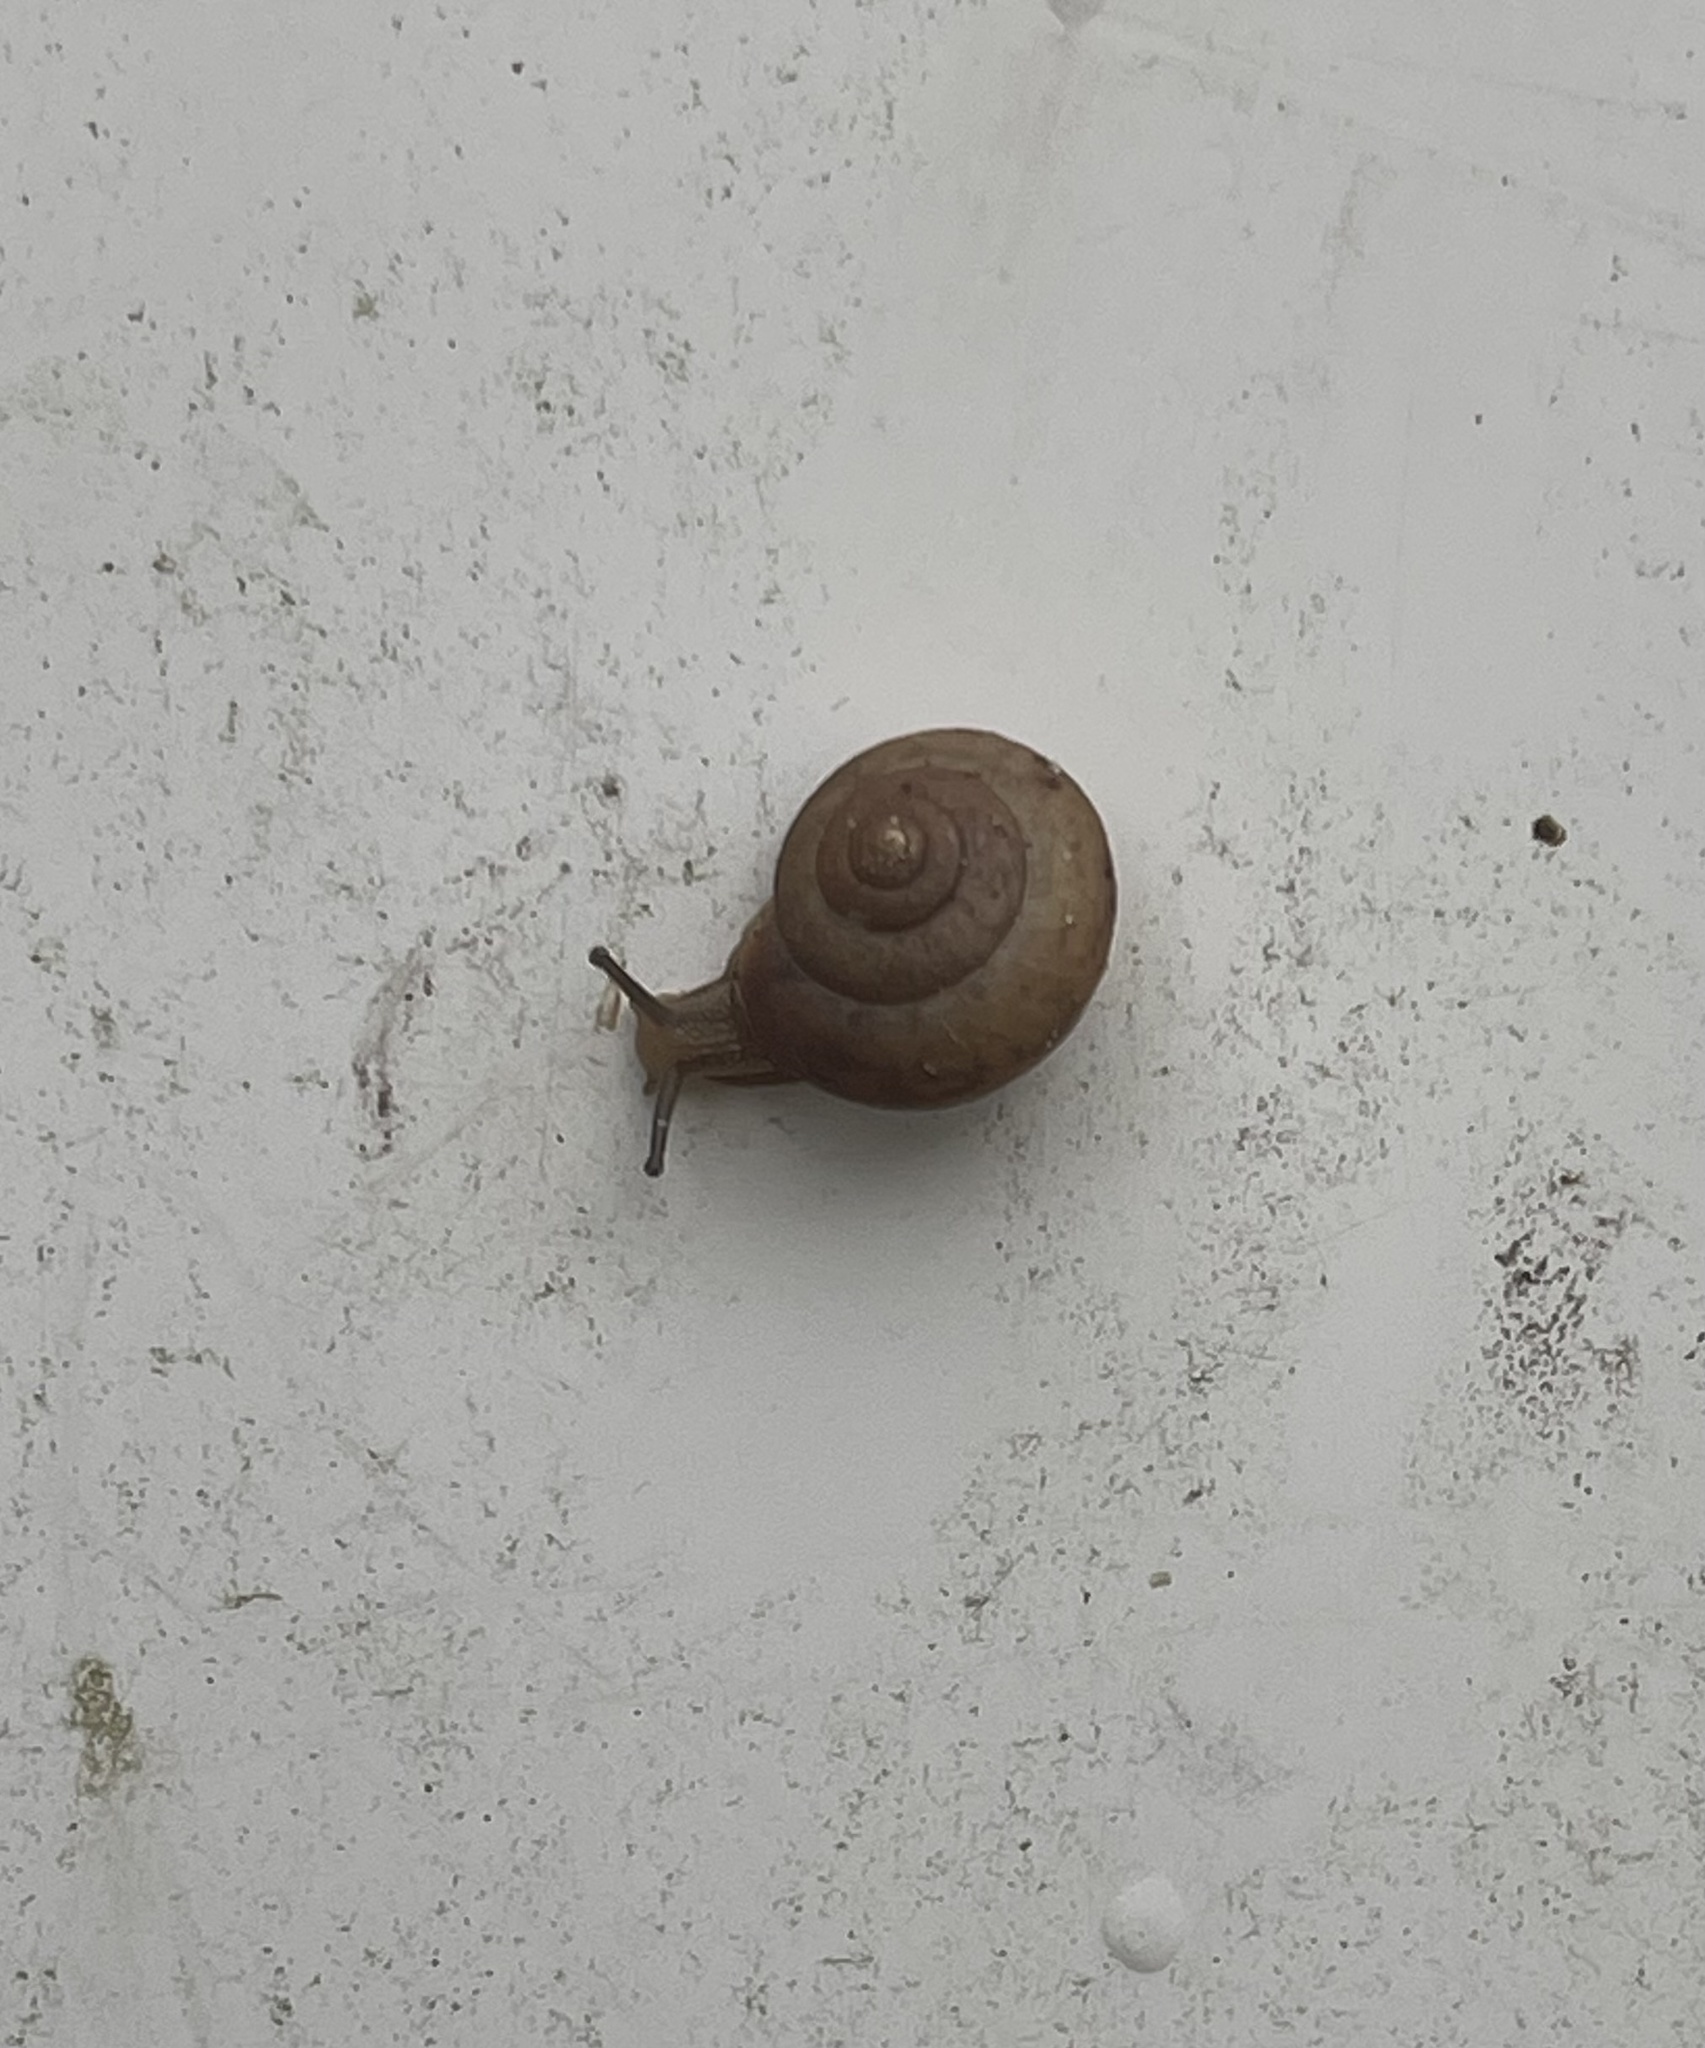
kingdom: Animalia
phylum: Mollusca
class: Gastropoda
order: Stylommatophora
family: Camaenidae
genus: Bradybaena
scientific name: Bradybaena similaris
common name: Asian trampsnail
